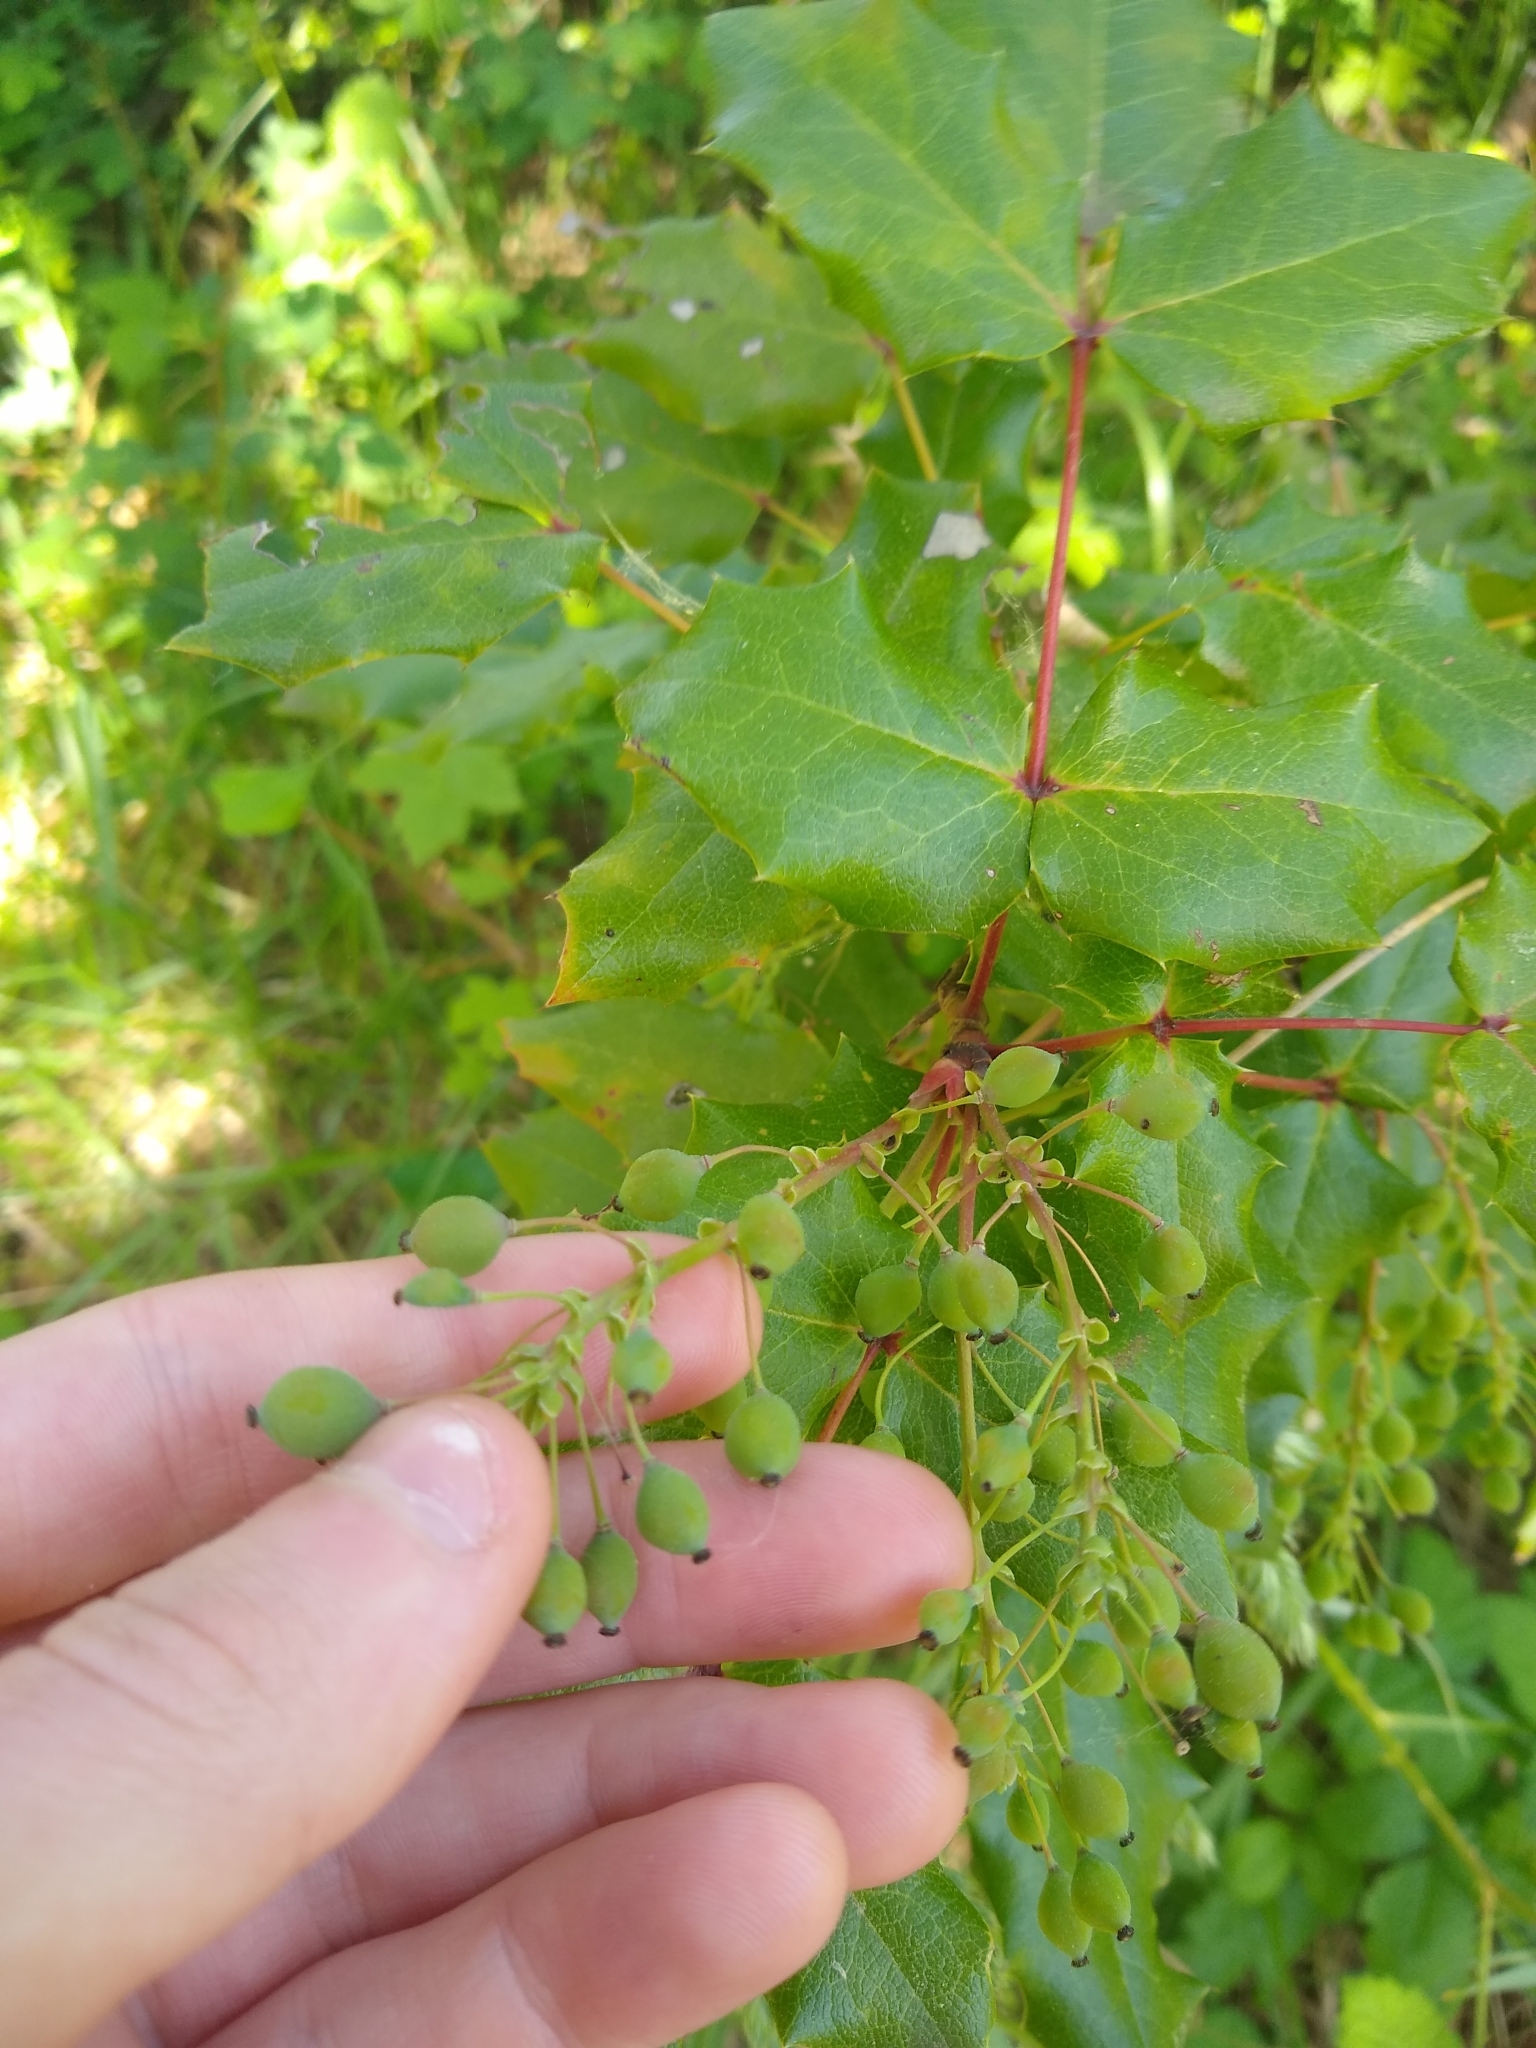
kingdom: Plantae
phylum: Tracheophyta
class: Magnoliopsida
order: Ranunculales
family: Berberidaceae
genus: Mahonia
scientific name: Mahonia aquifolium
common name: Oregon-grape
